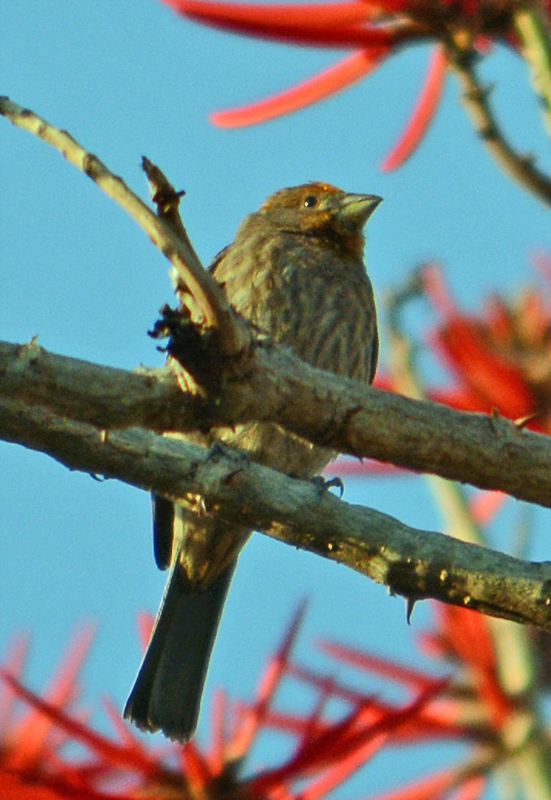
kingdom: Animalia
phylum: Chordata
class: Aves
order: Passeriformes
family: Fringillidae
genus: Haemorhous
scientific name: Haemorhous mexicanus
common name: House finch
